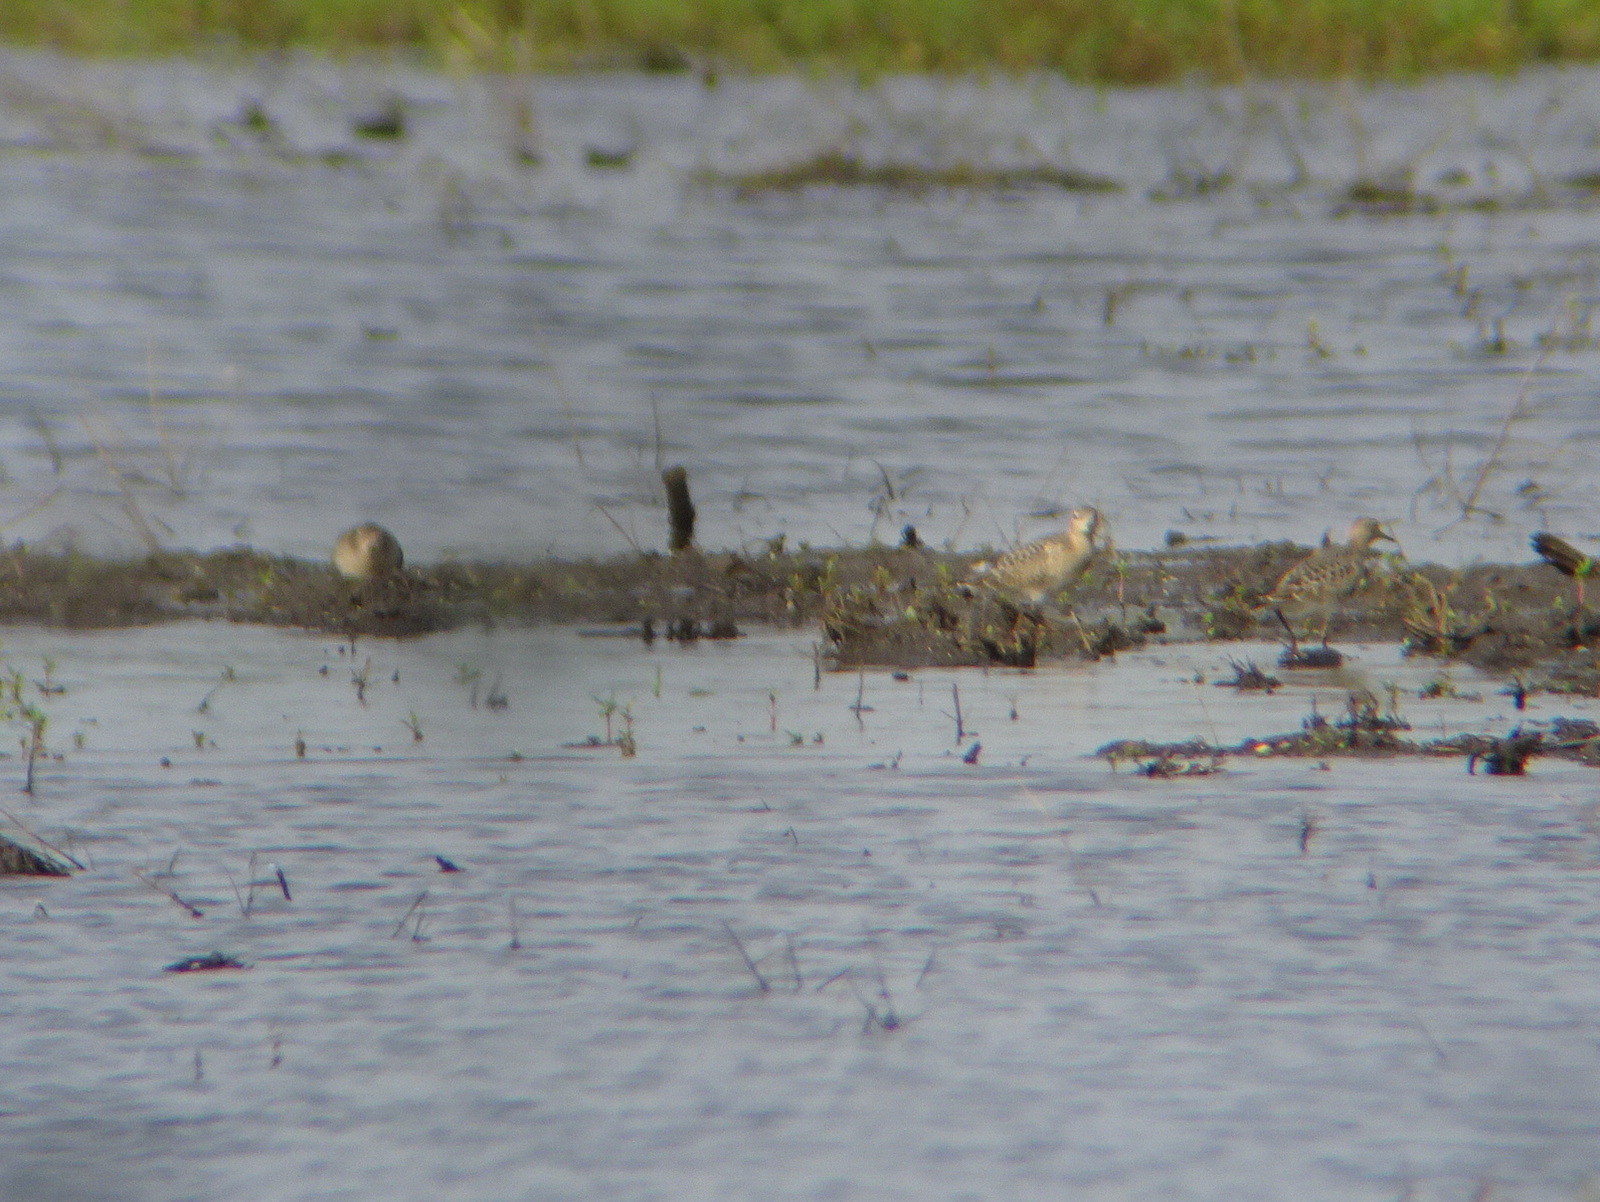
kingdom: Animalia
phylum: Chordata
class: Aves
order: Charadriiformes
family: Scolopacidae
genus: Calidris
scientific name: Calidris subruficollis
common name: Buff-breasted sandpiper
